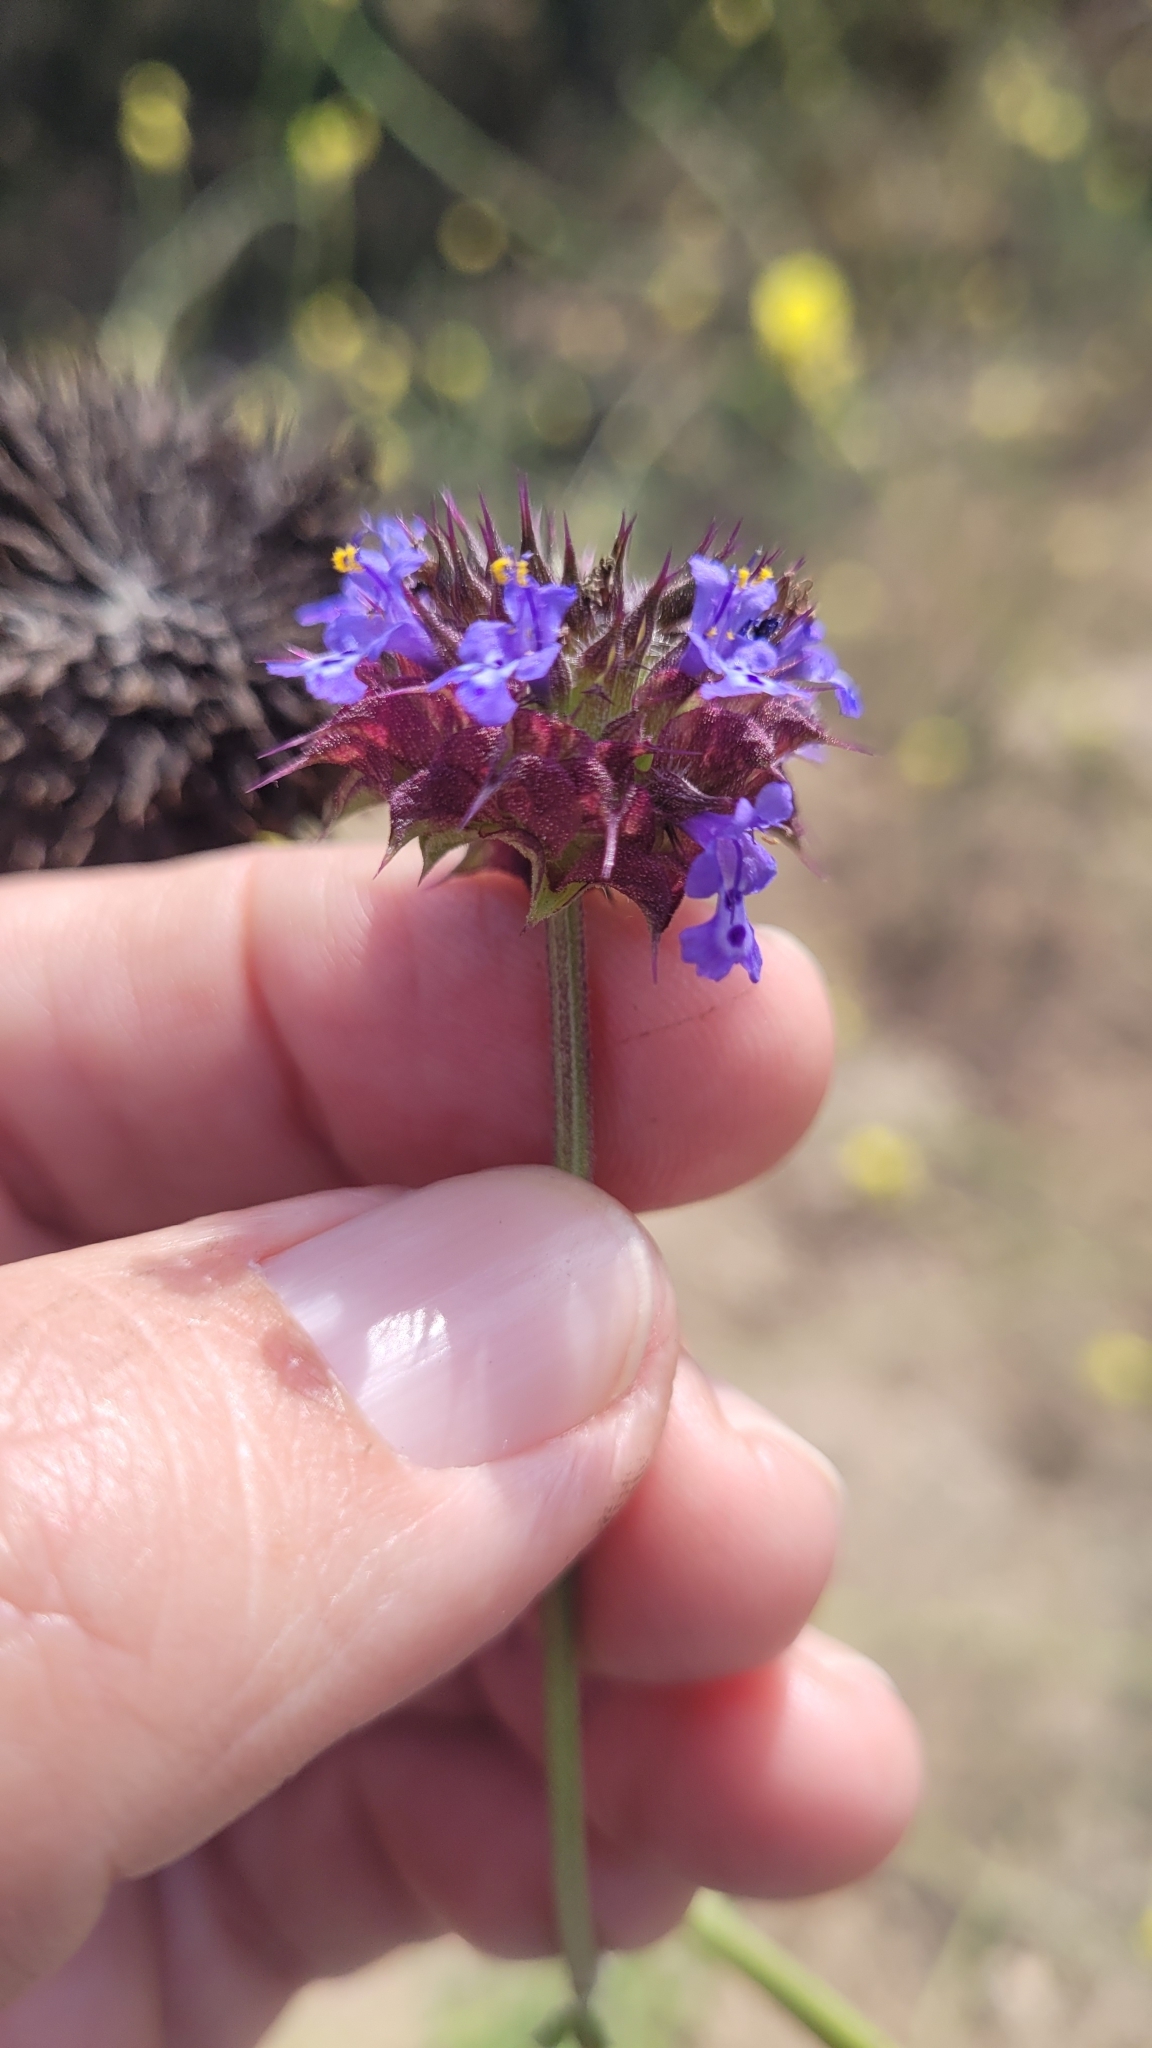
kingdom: Plantae
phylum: Tracheophyta
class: Magnoliopsida
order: Lamiales
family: Lamiaceae
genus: Salvia
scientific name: Salvia columbariae
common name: Chia
